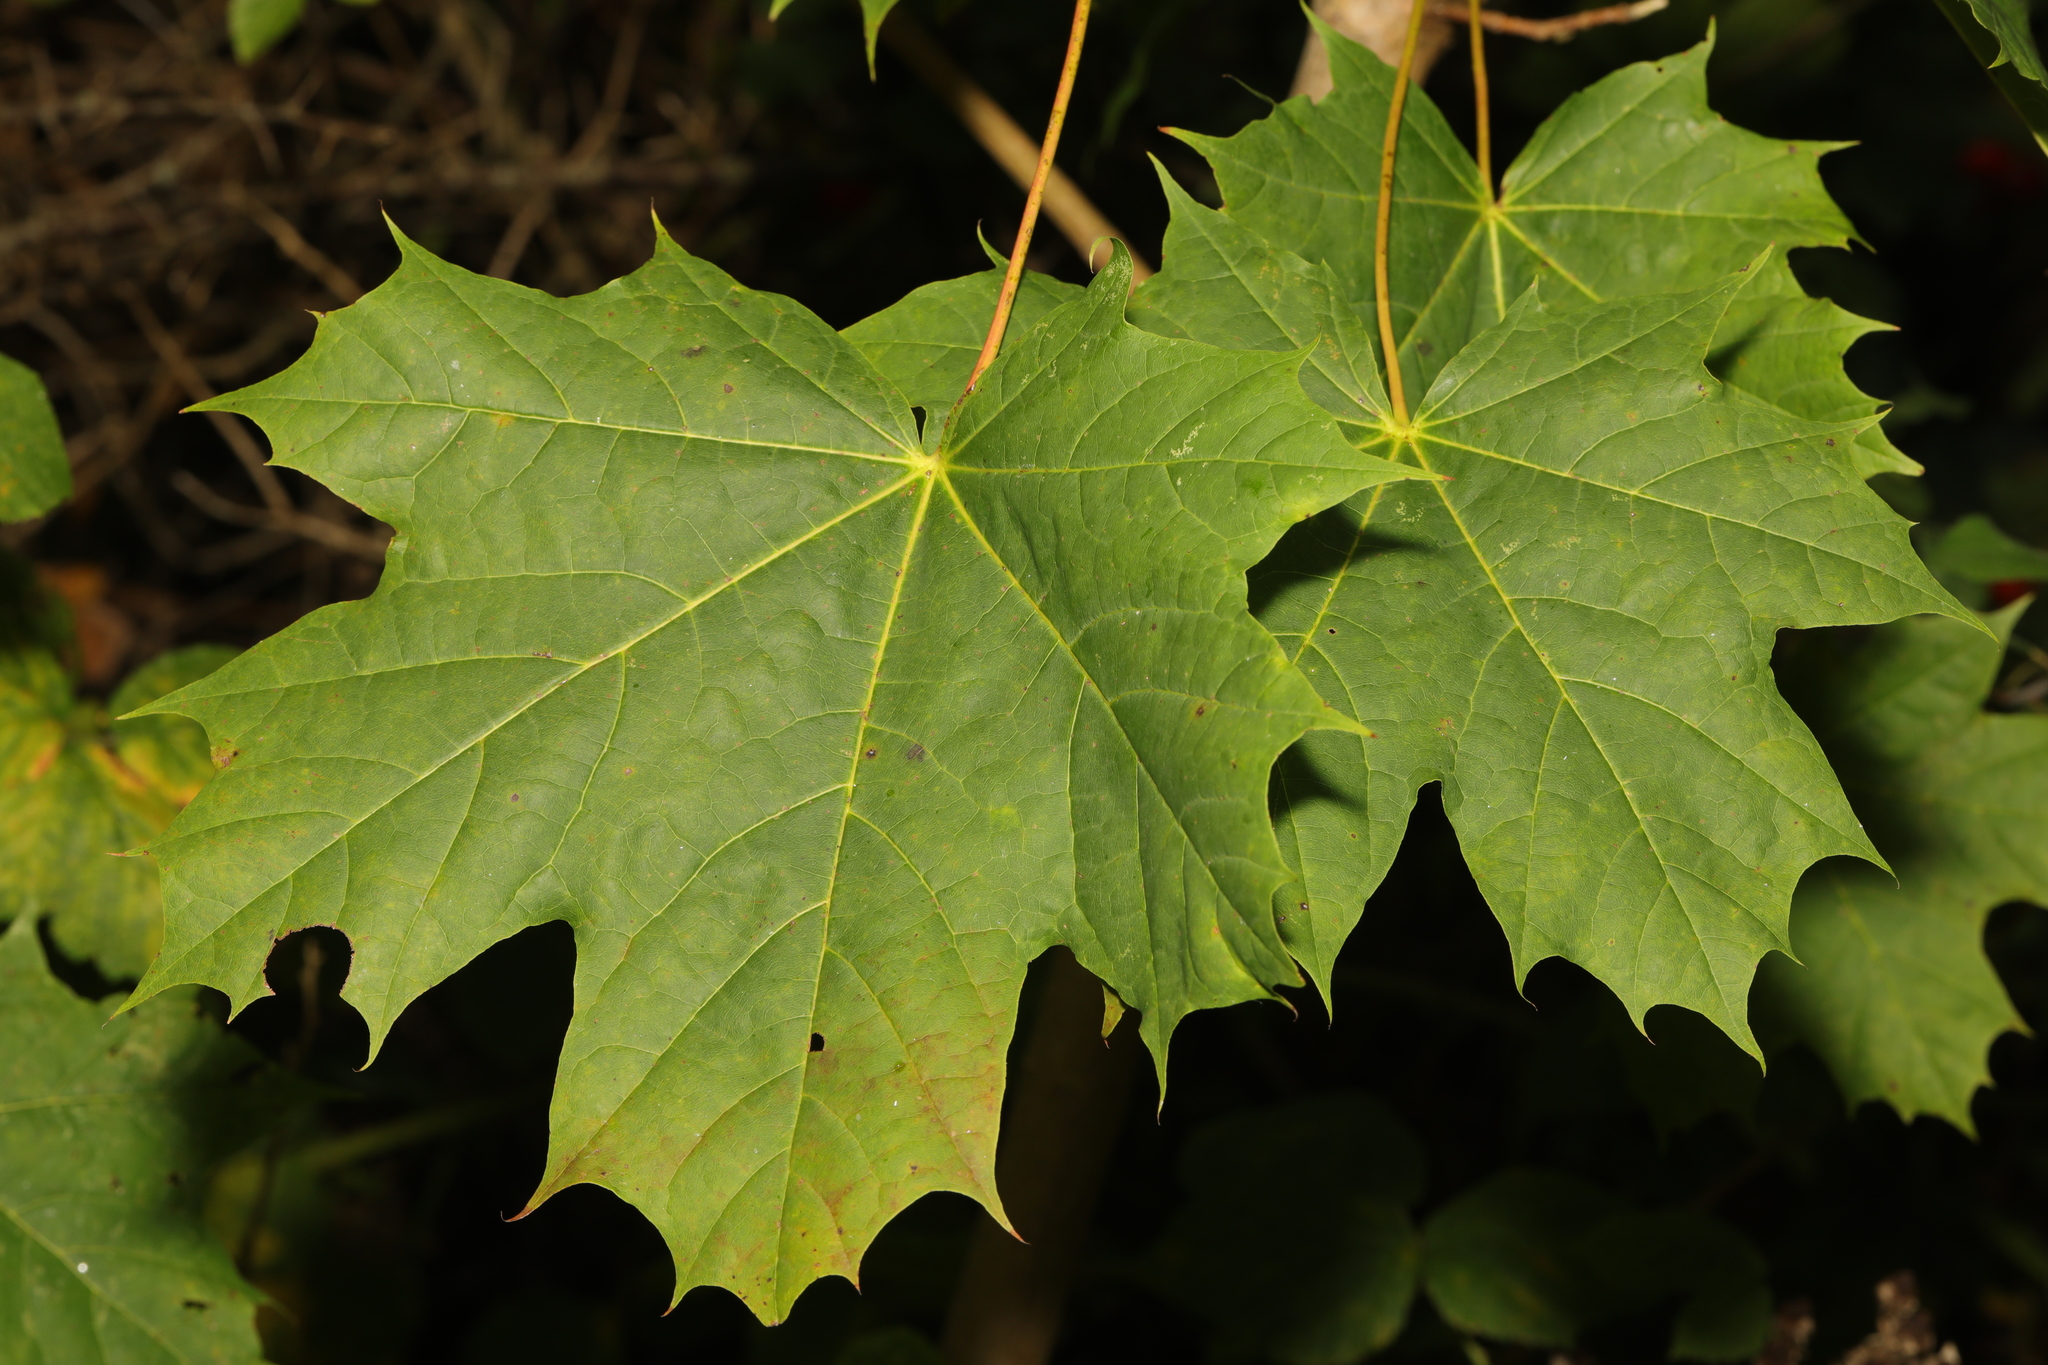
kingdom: Plantae
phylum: Tracheophyta
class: Magnoliopsida
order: Sapindales
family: Sapindaceae
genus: Acer
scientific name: Acer platanoides
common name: Norway maple
